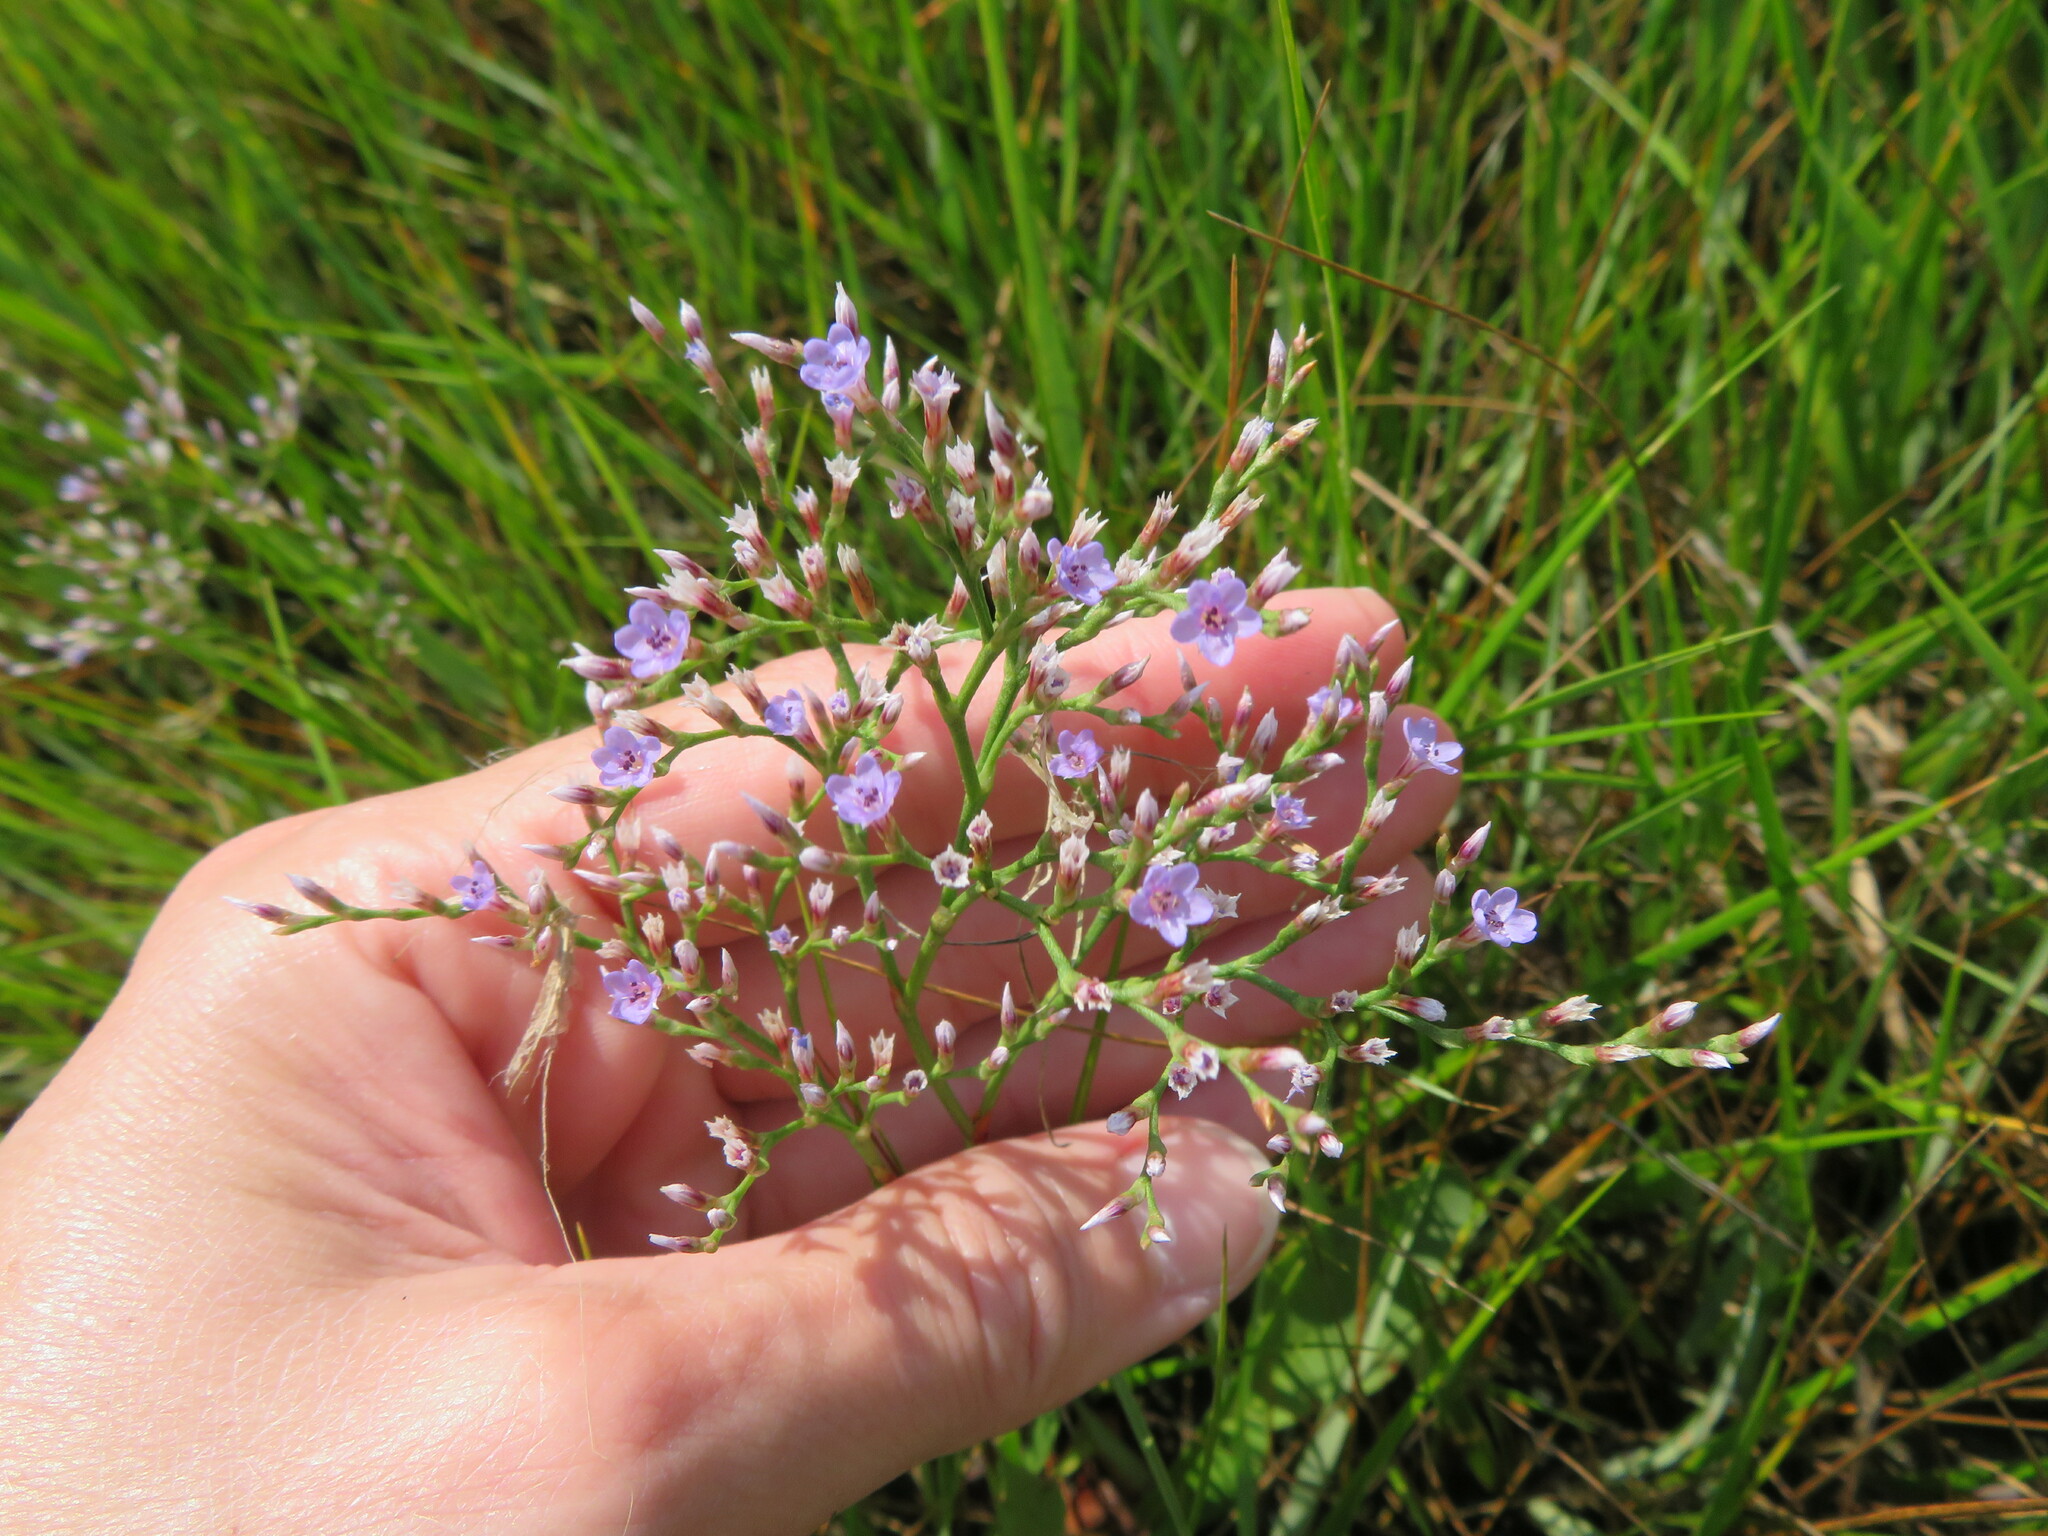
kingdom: Plantae
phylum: Tracheophyta
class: Magnoliopsida
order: Caryophyllales
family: Plumbaginaceae
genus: Limonium
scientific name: Limonium carolinianum
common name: Carolina sea lavender
